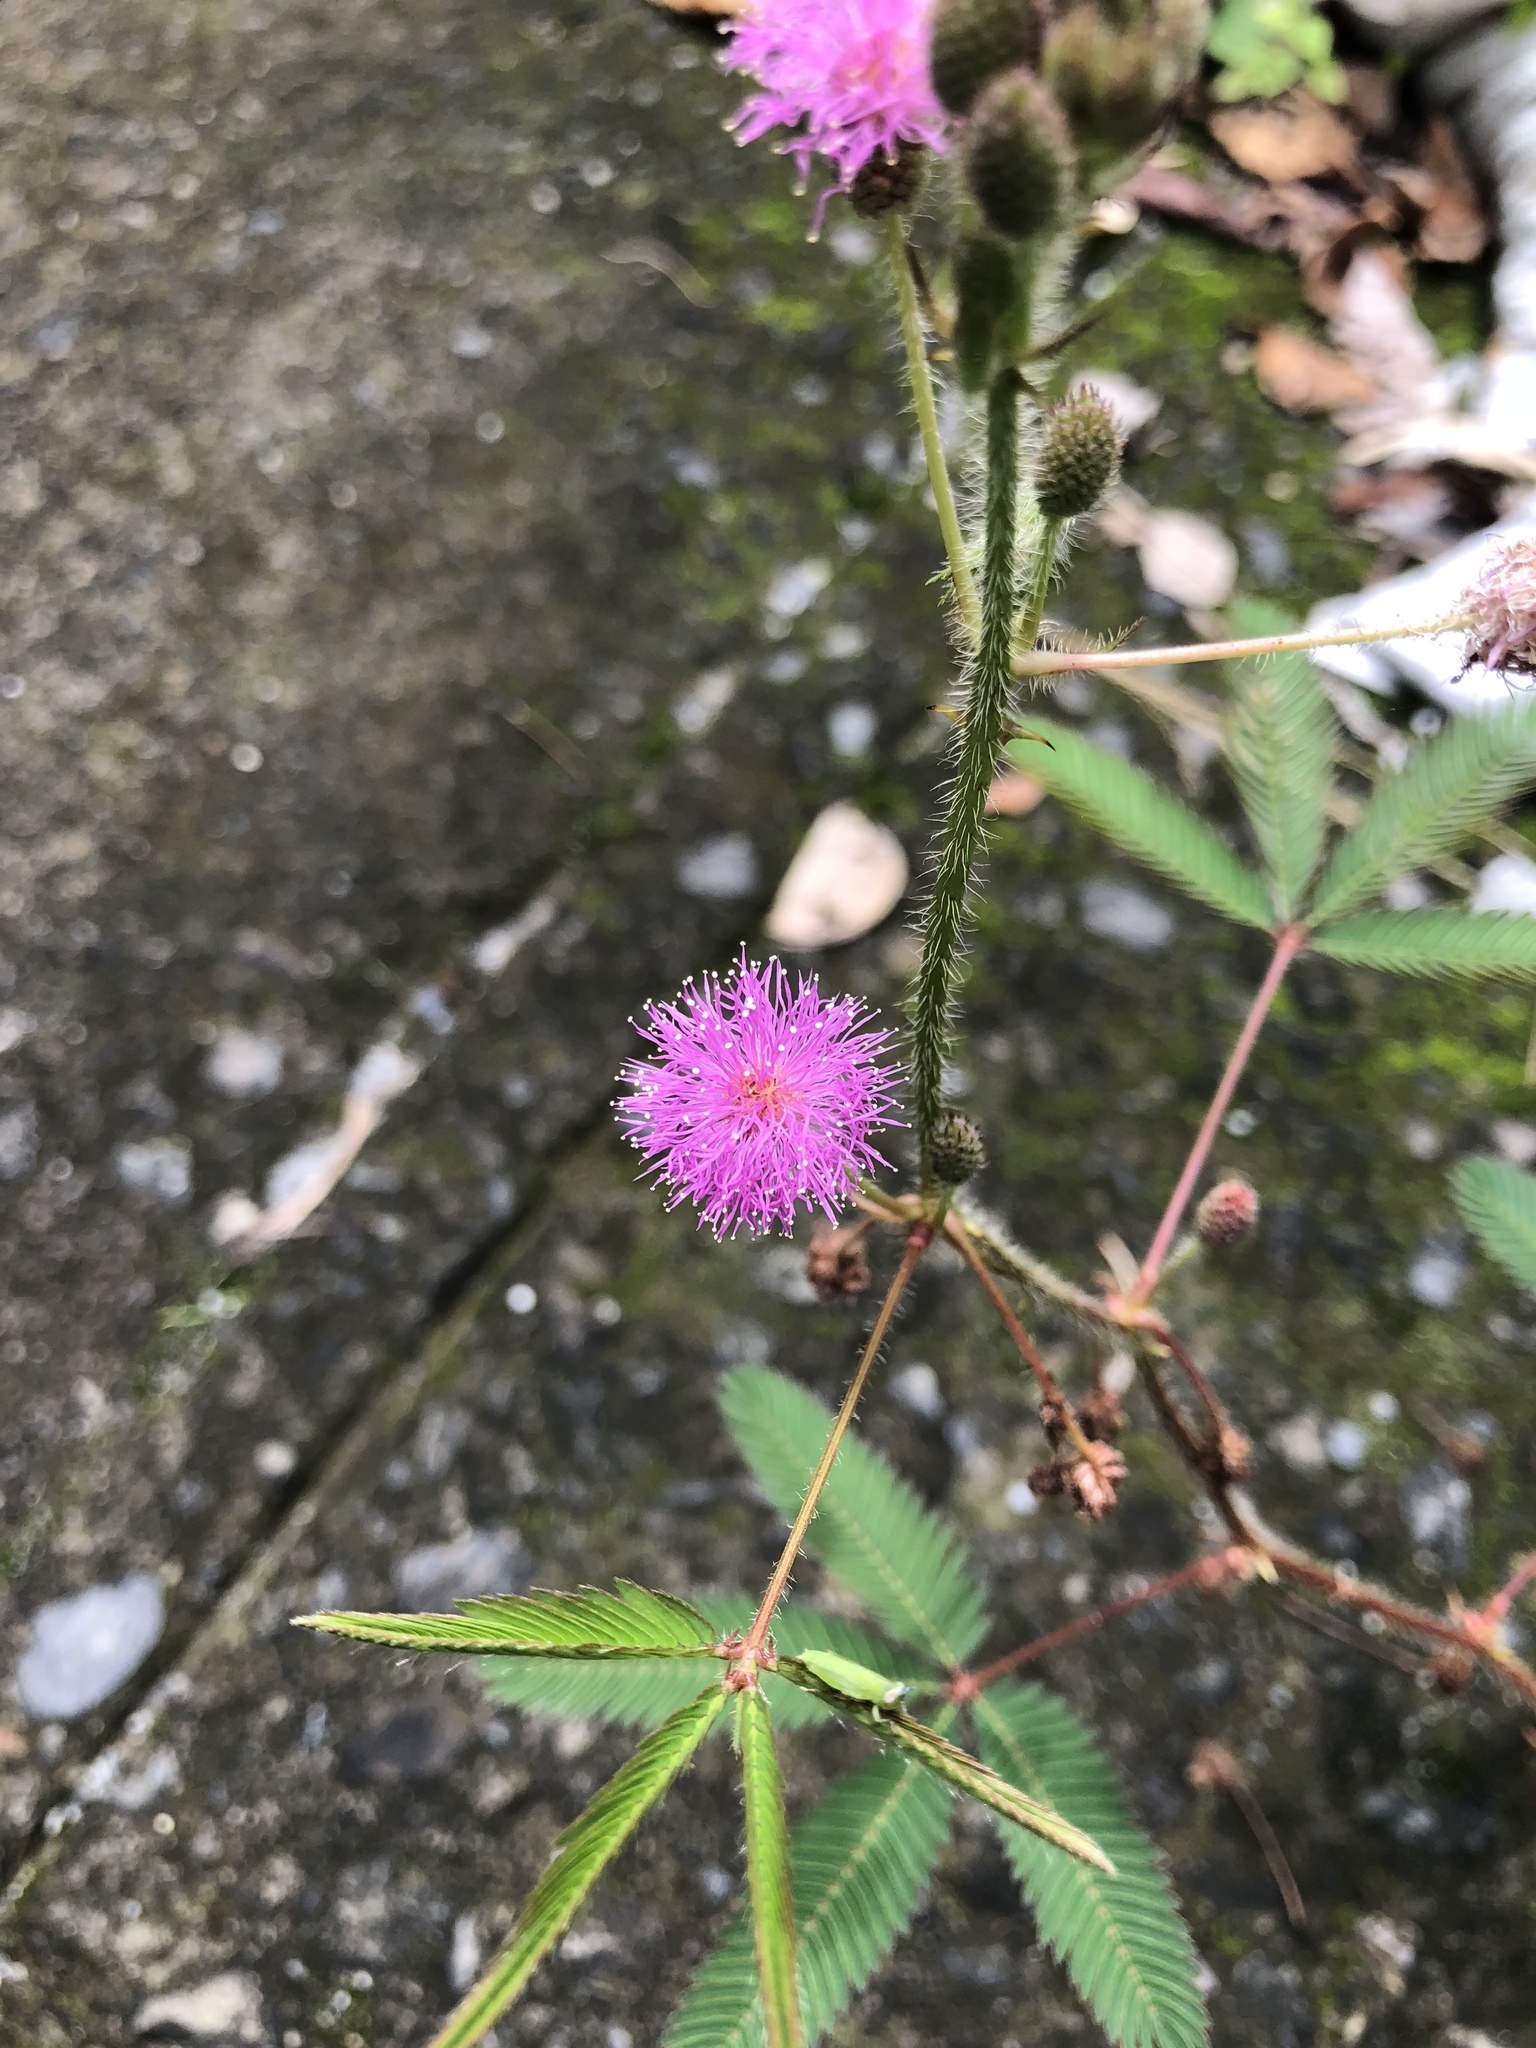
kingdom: Plantae
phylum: Tracheophyta
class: Magnoliopsida
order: Fabales
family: Fabaceae
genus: Mimosa
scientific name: Mimosa pudica
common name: Sensitive plant
